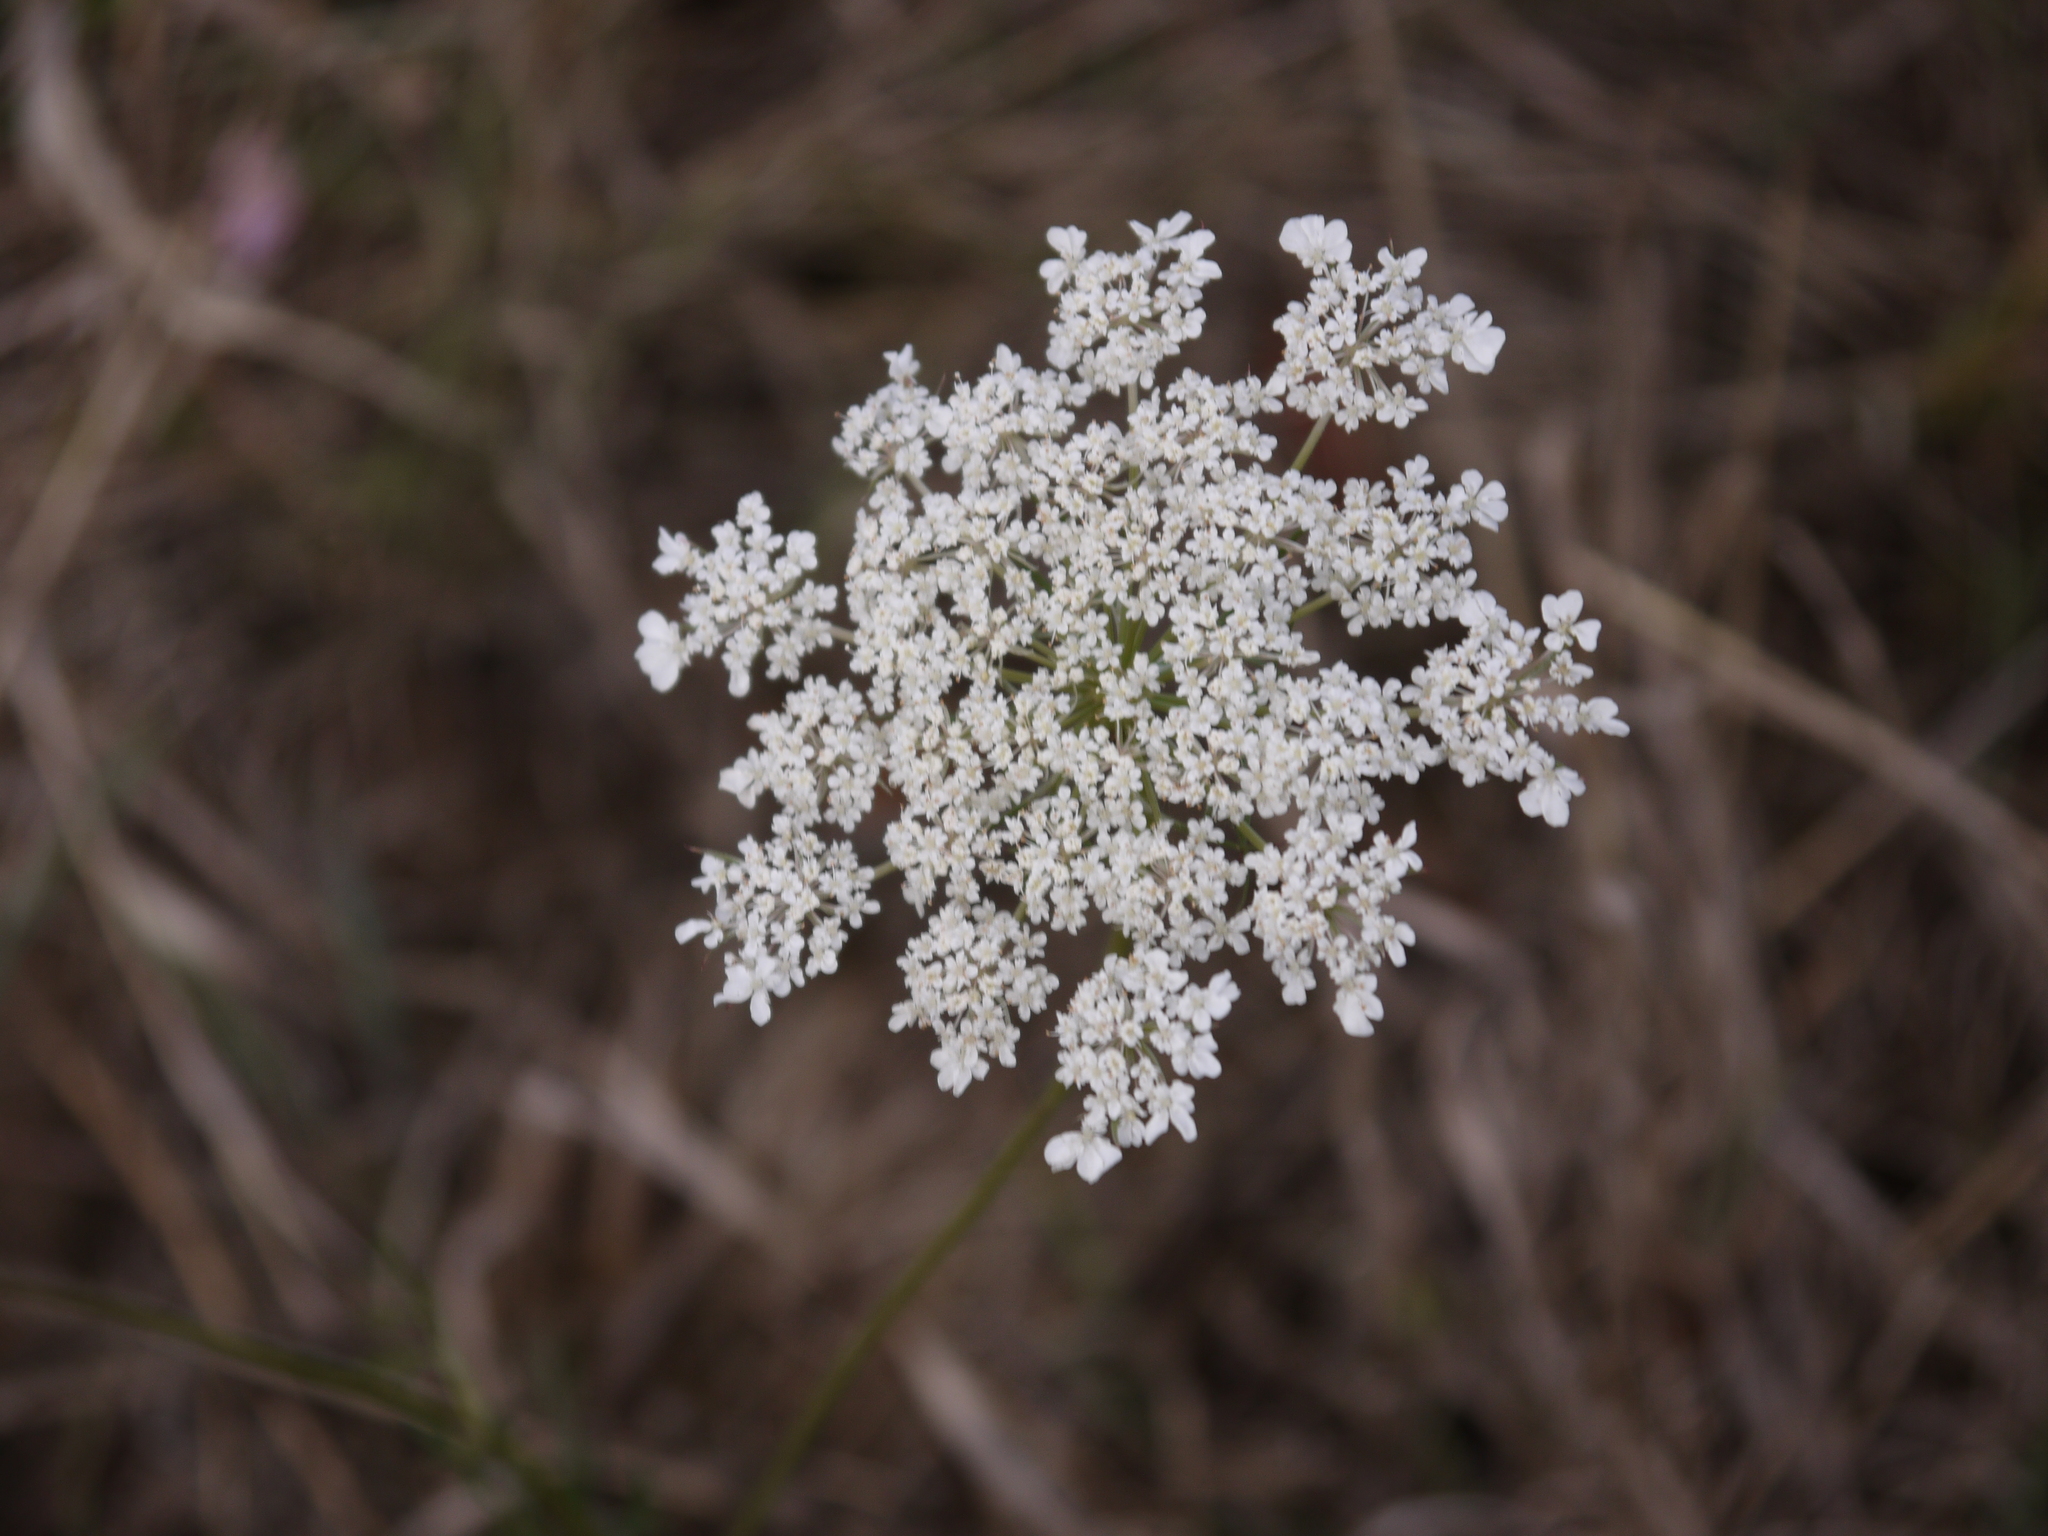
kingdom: Plantae
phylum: Tracheophyta
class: Magnoliopsida
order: Apiales
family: Apiaceae
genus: Daucus
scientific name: Daucus carota
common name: Wild carrot
